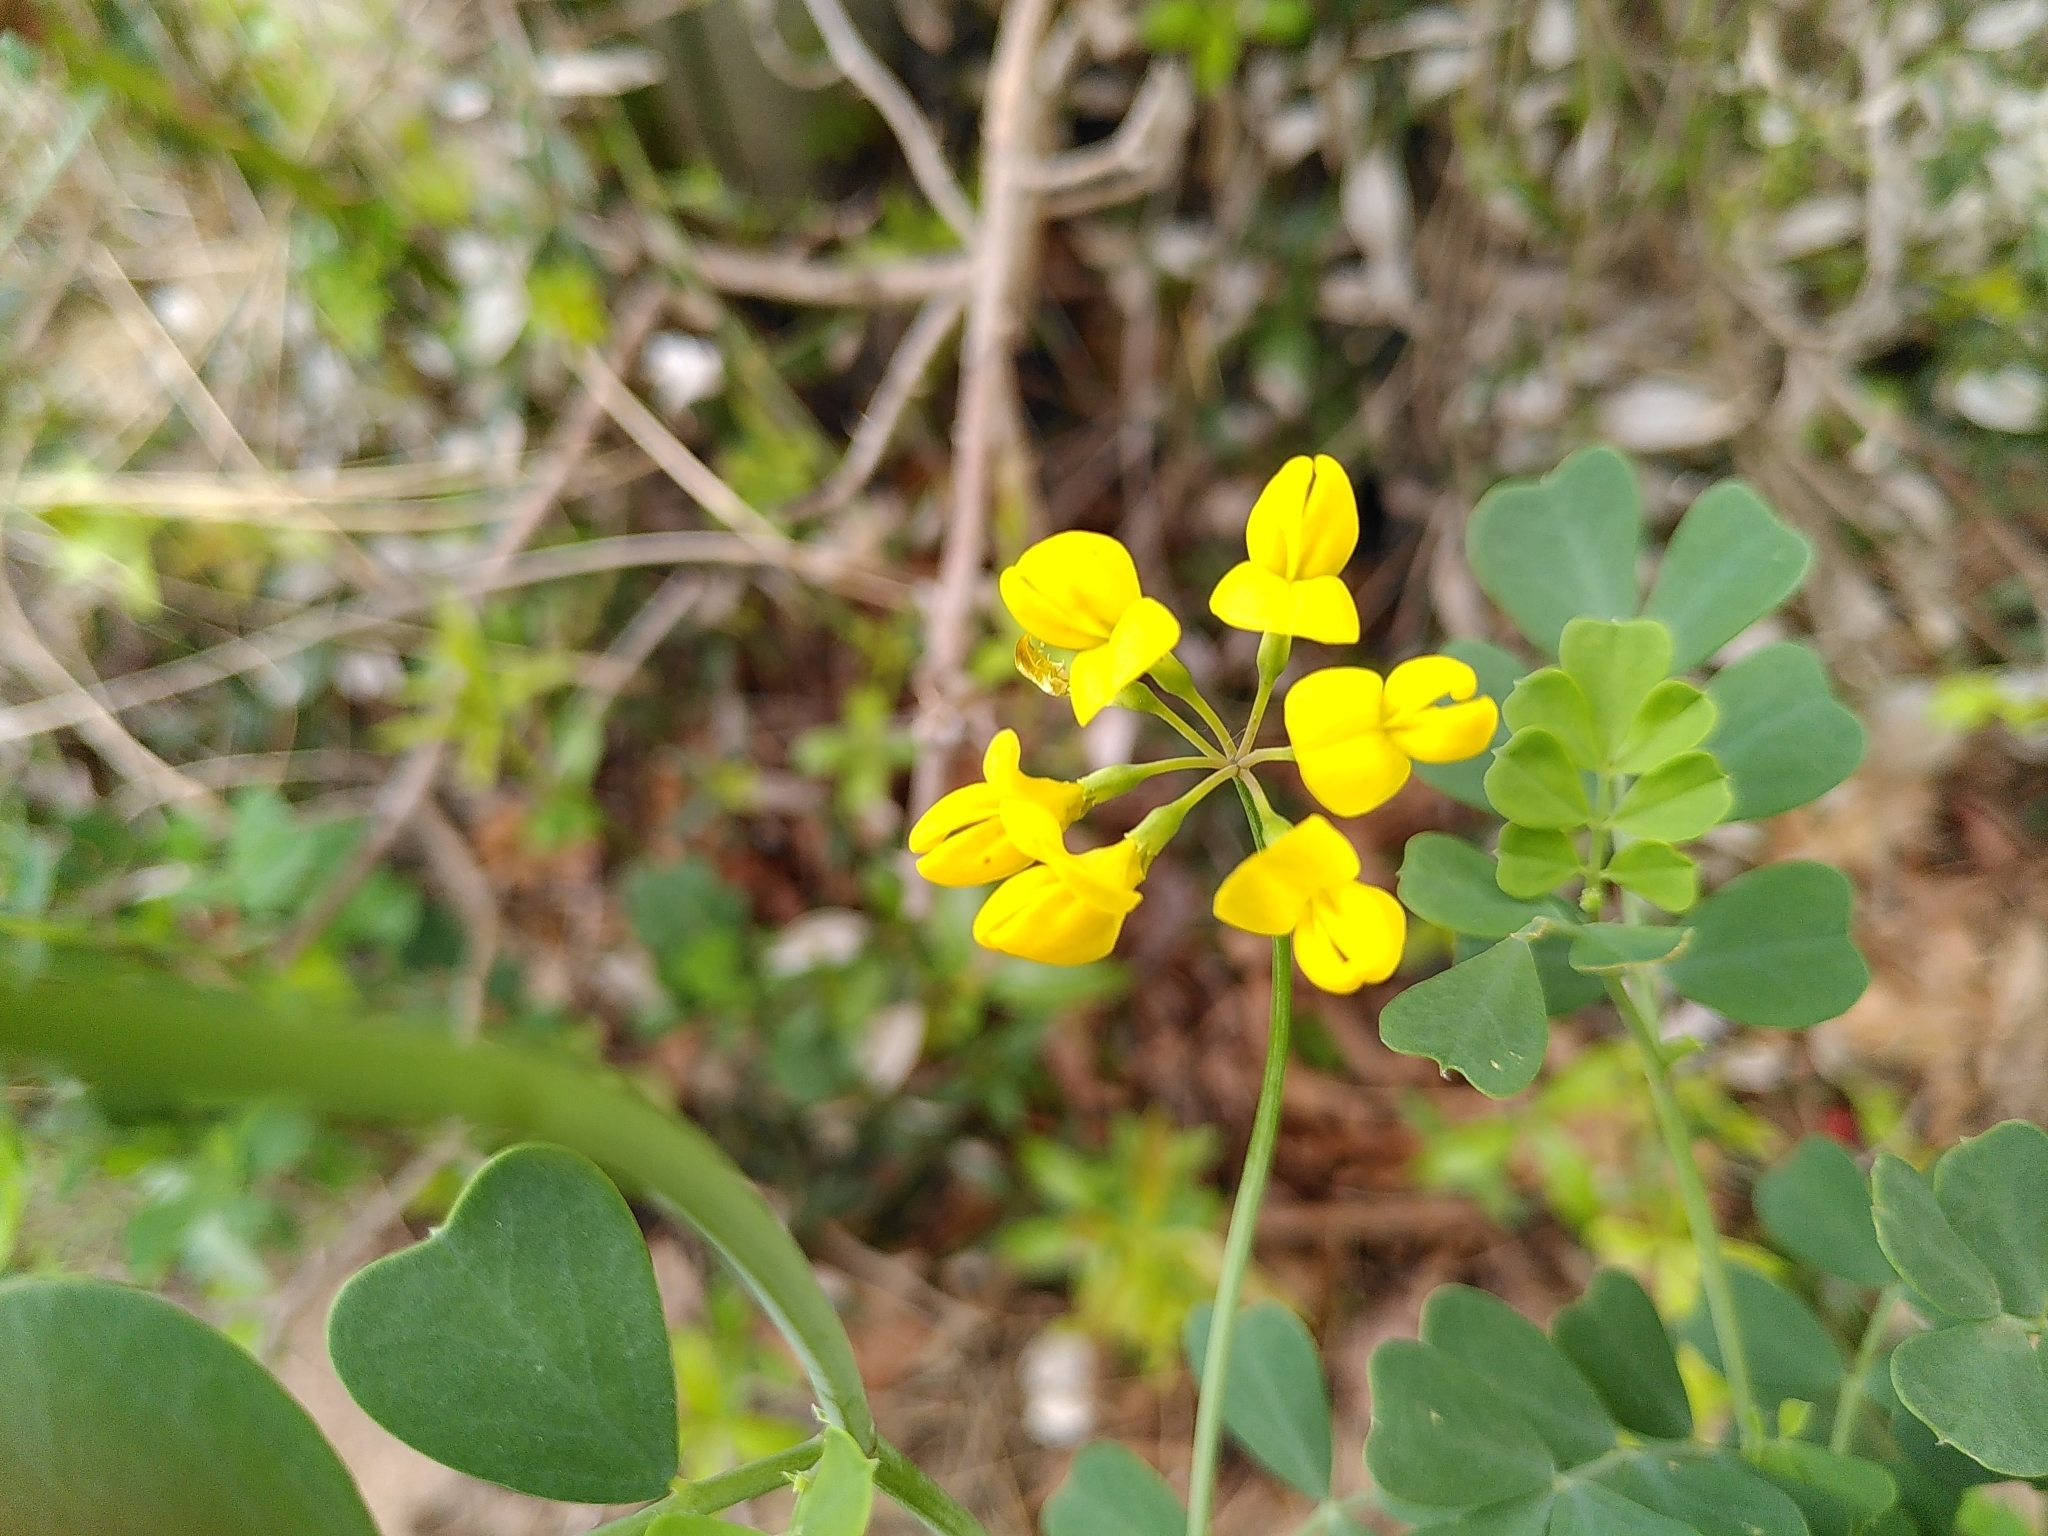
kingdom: Plantae
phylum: Tracheophyta
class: Magnoliopsida
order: Fabales
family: Fabaceae
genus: Coronilla
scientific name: Coronilla valentina
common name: Shrubby scorpion-vetch
